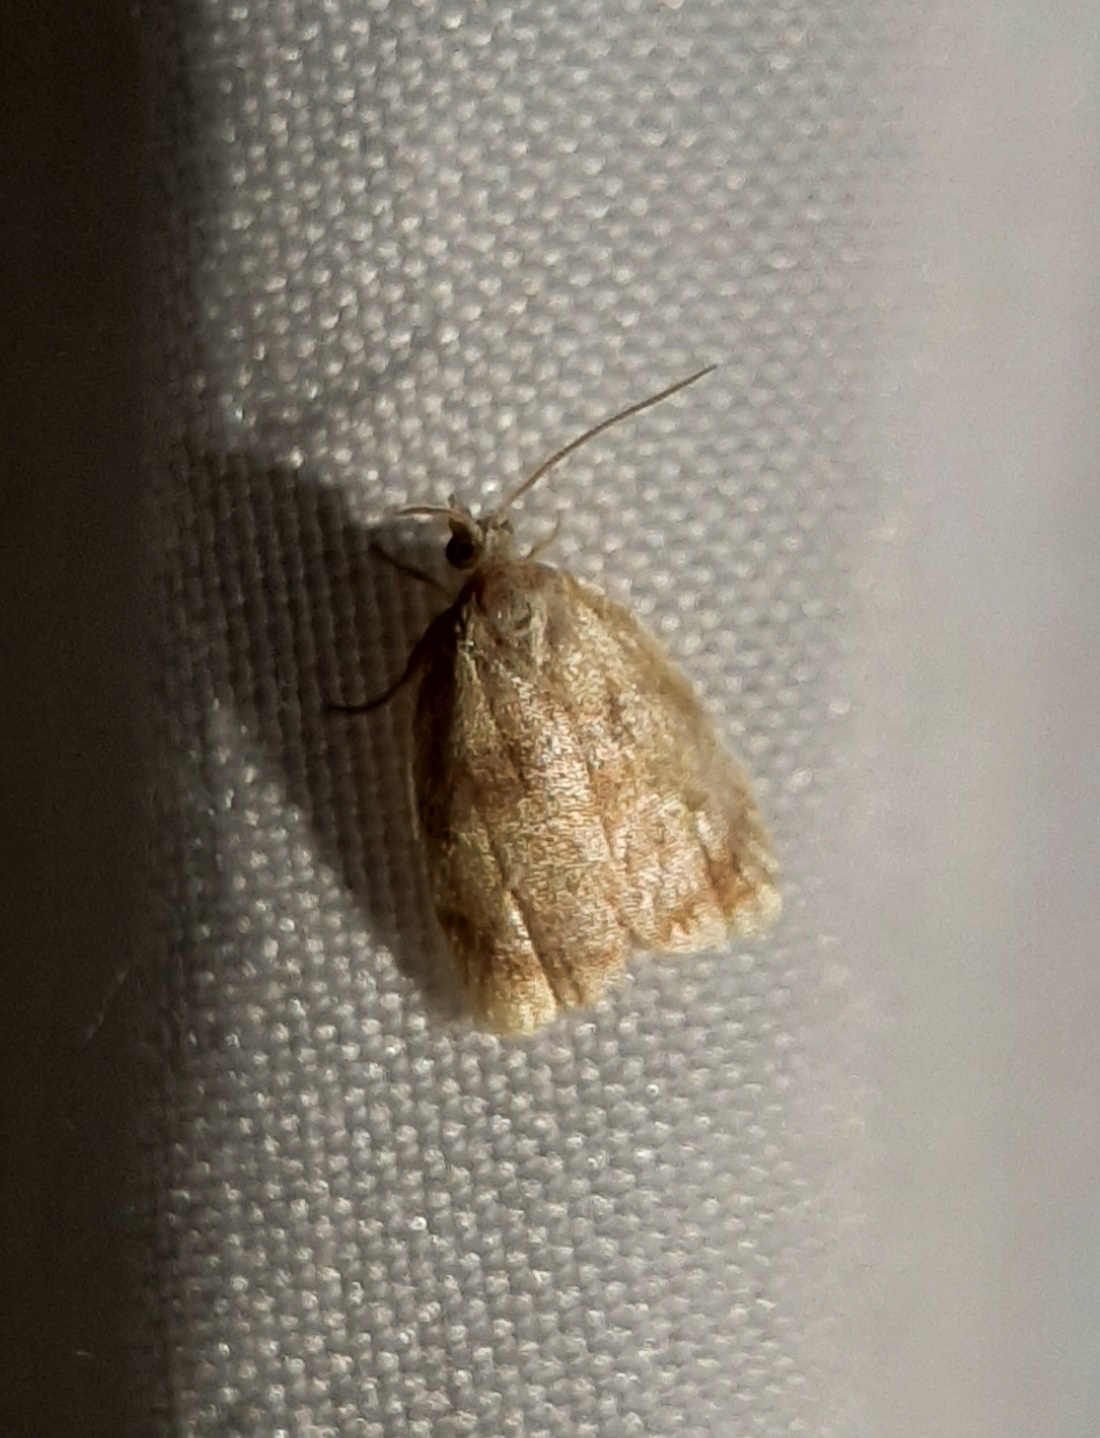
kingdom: Animalia
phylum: Arthropoda
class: Insecta
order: Lepidoptera
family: Tortricidae
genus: Acleris
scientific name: Acleris curvalana
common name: Blueberry leaftier moth
